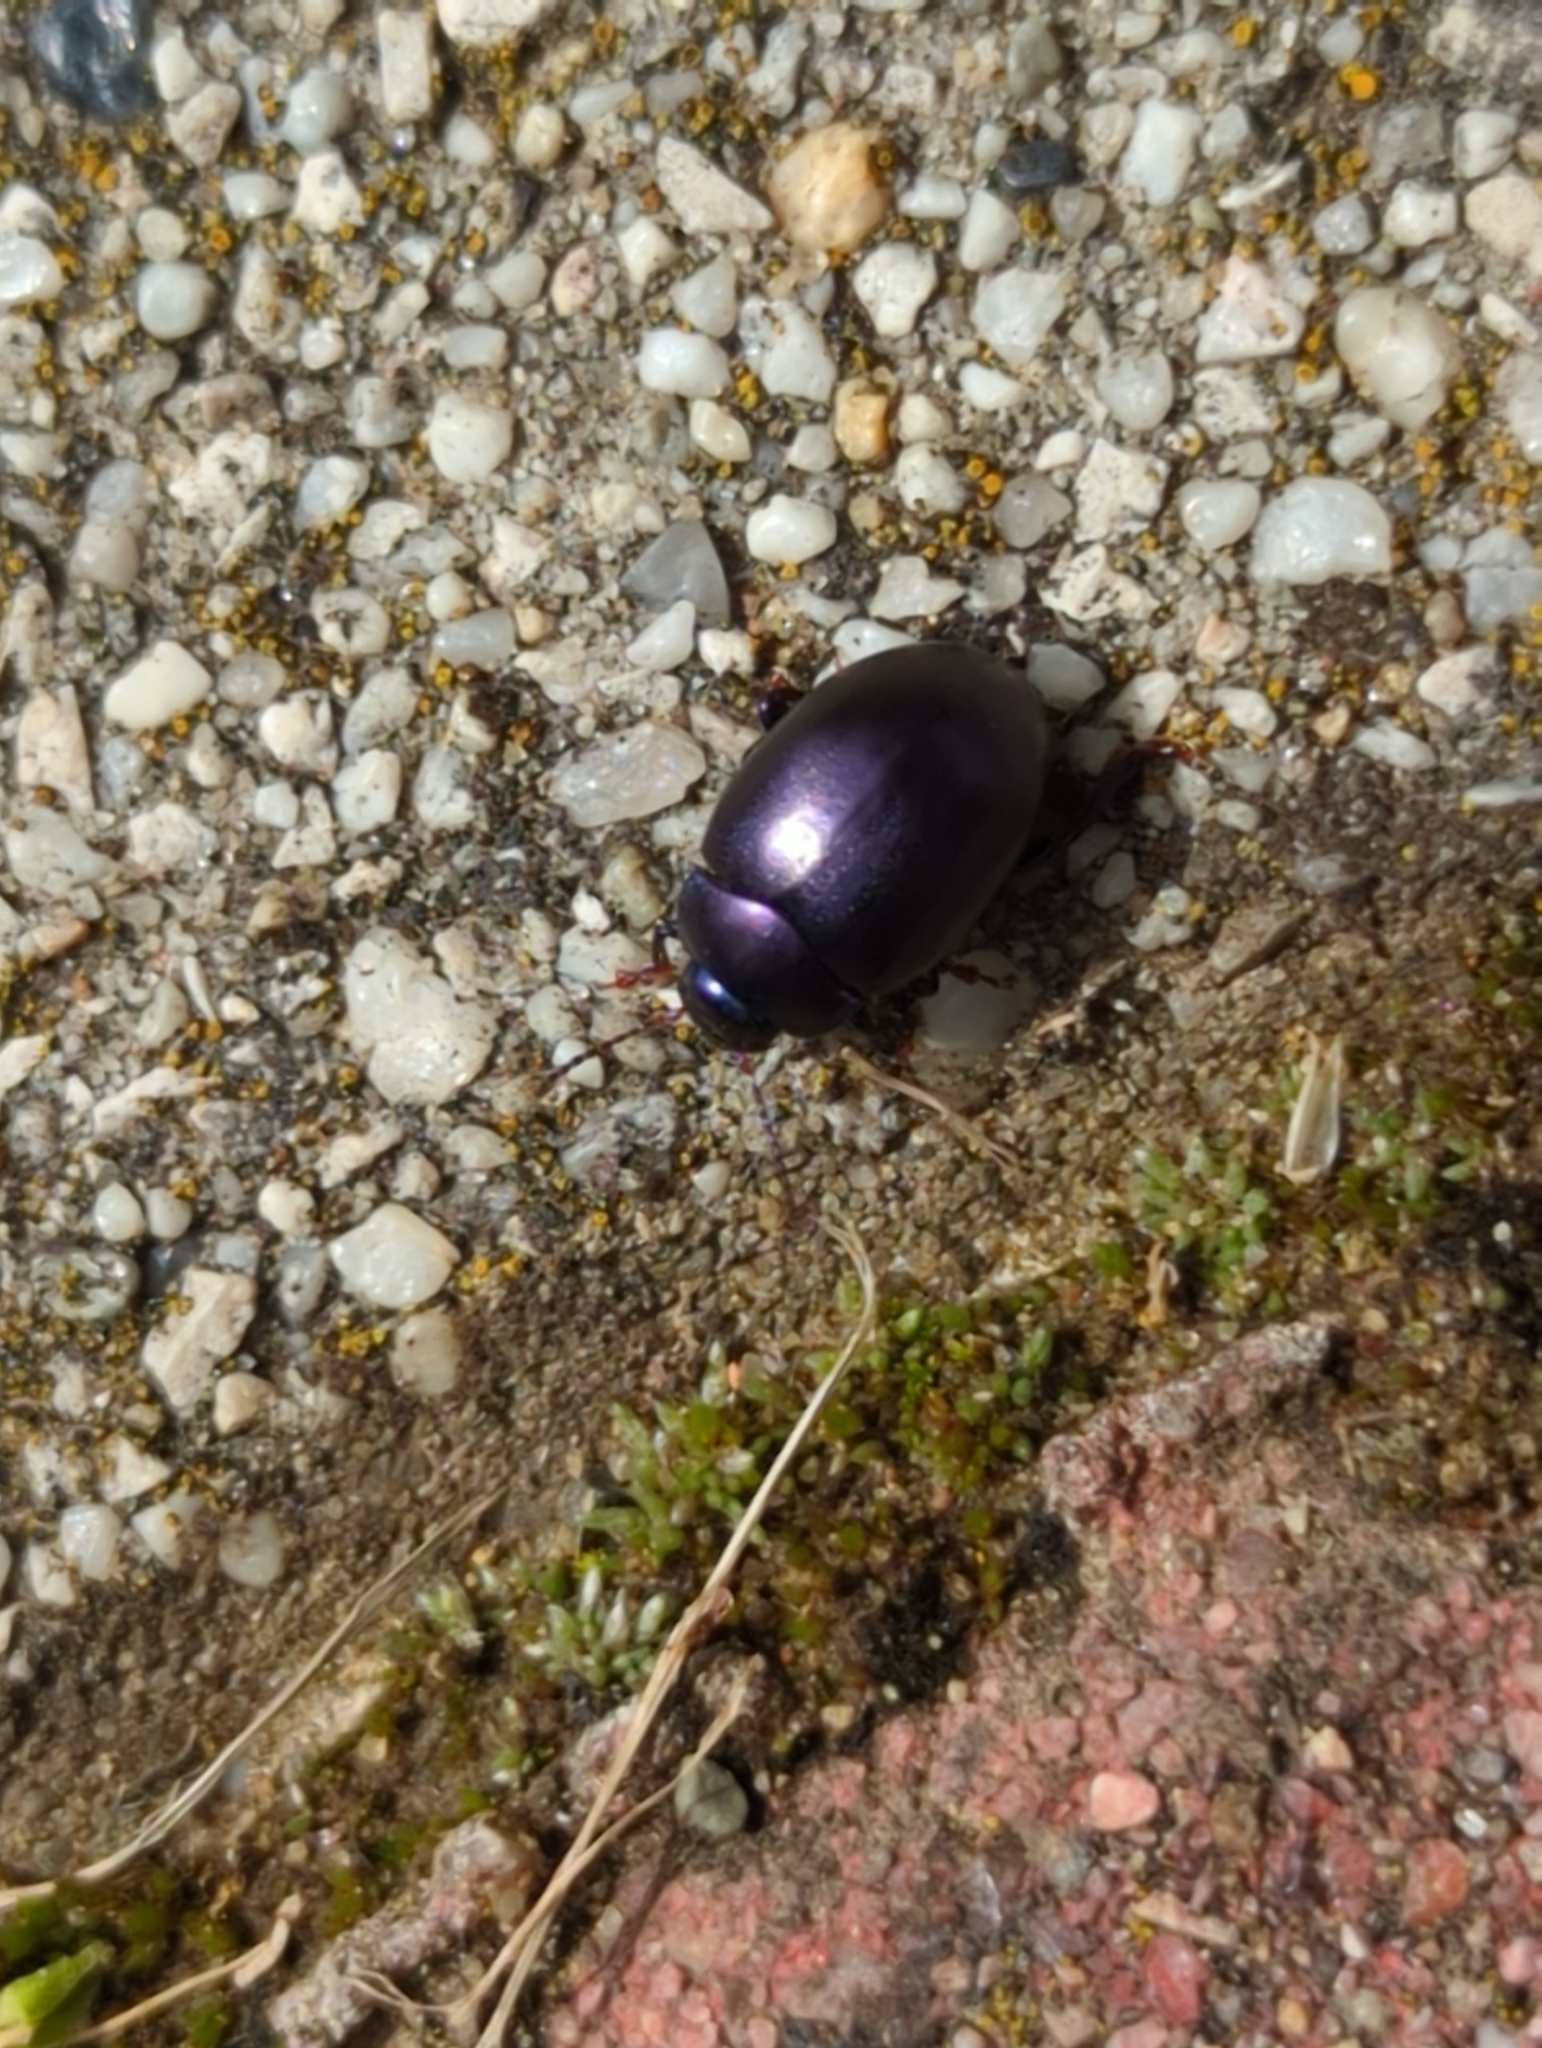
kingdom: Animalia
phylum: Arthropoda
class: Insecta
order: Coleoptera
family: Chrysomelidae
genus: Chrysolina
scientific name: Chrysolina sturmi
